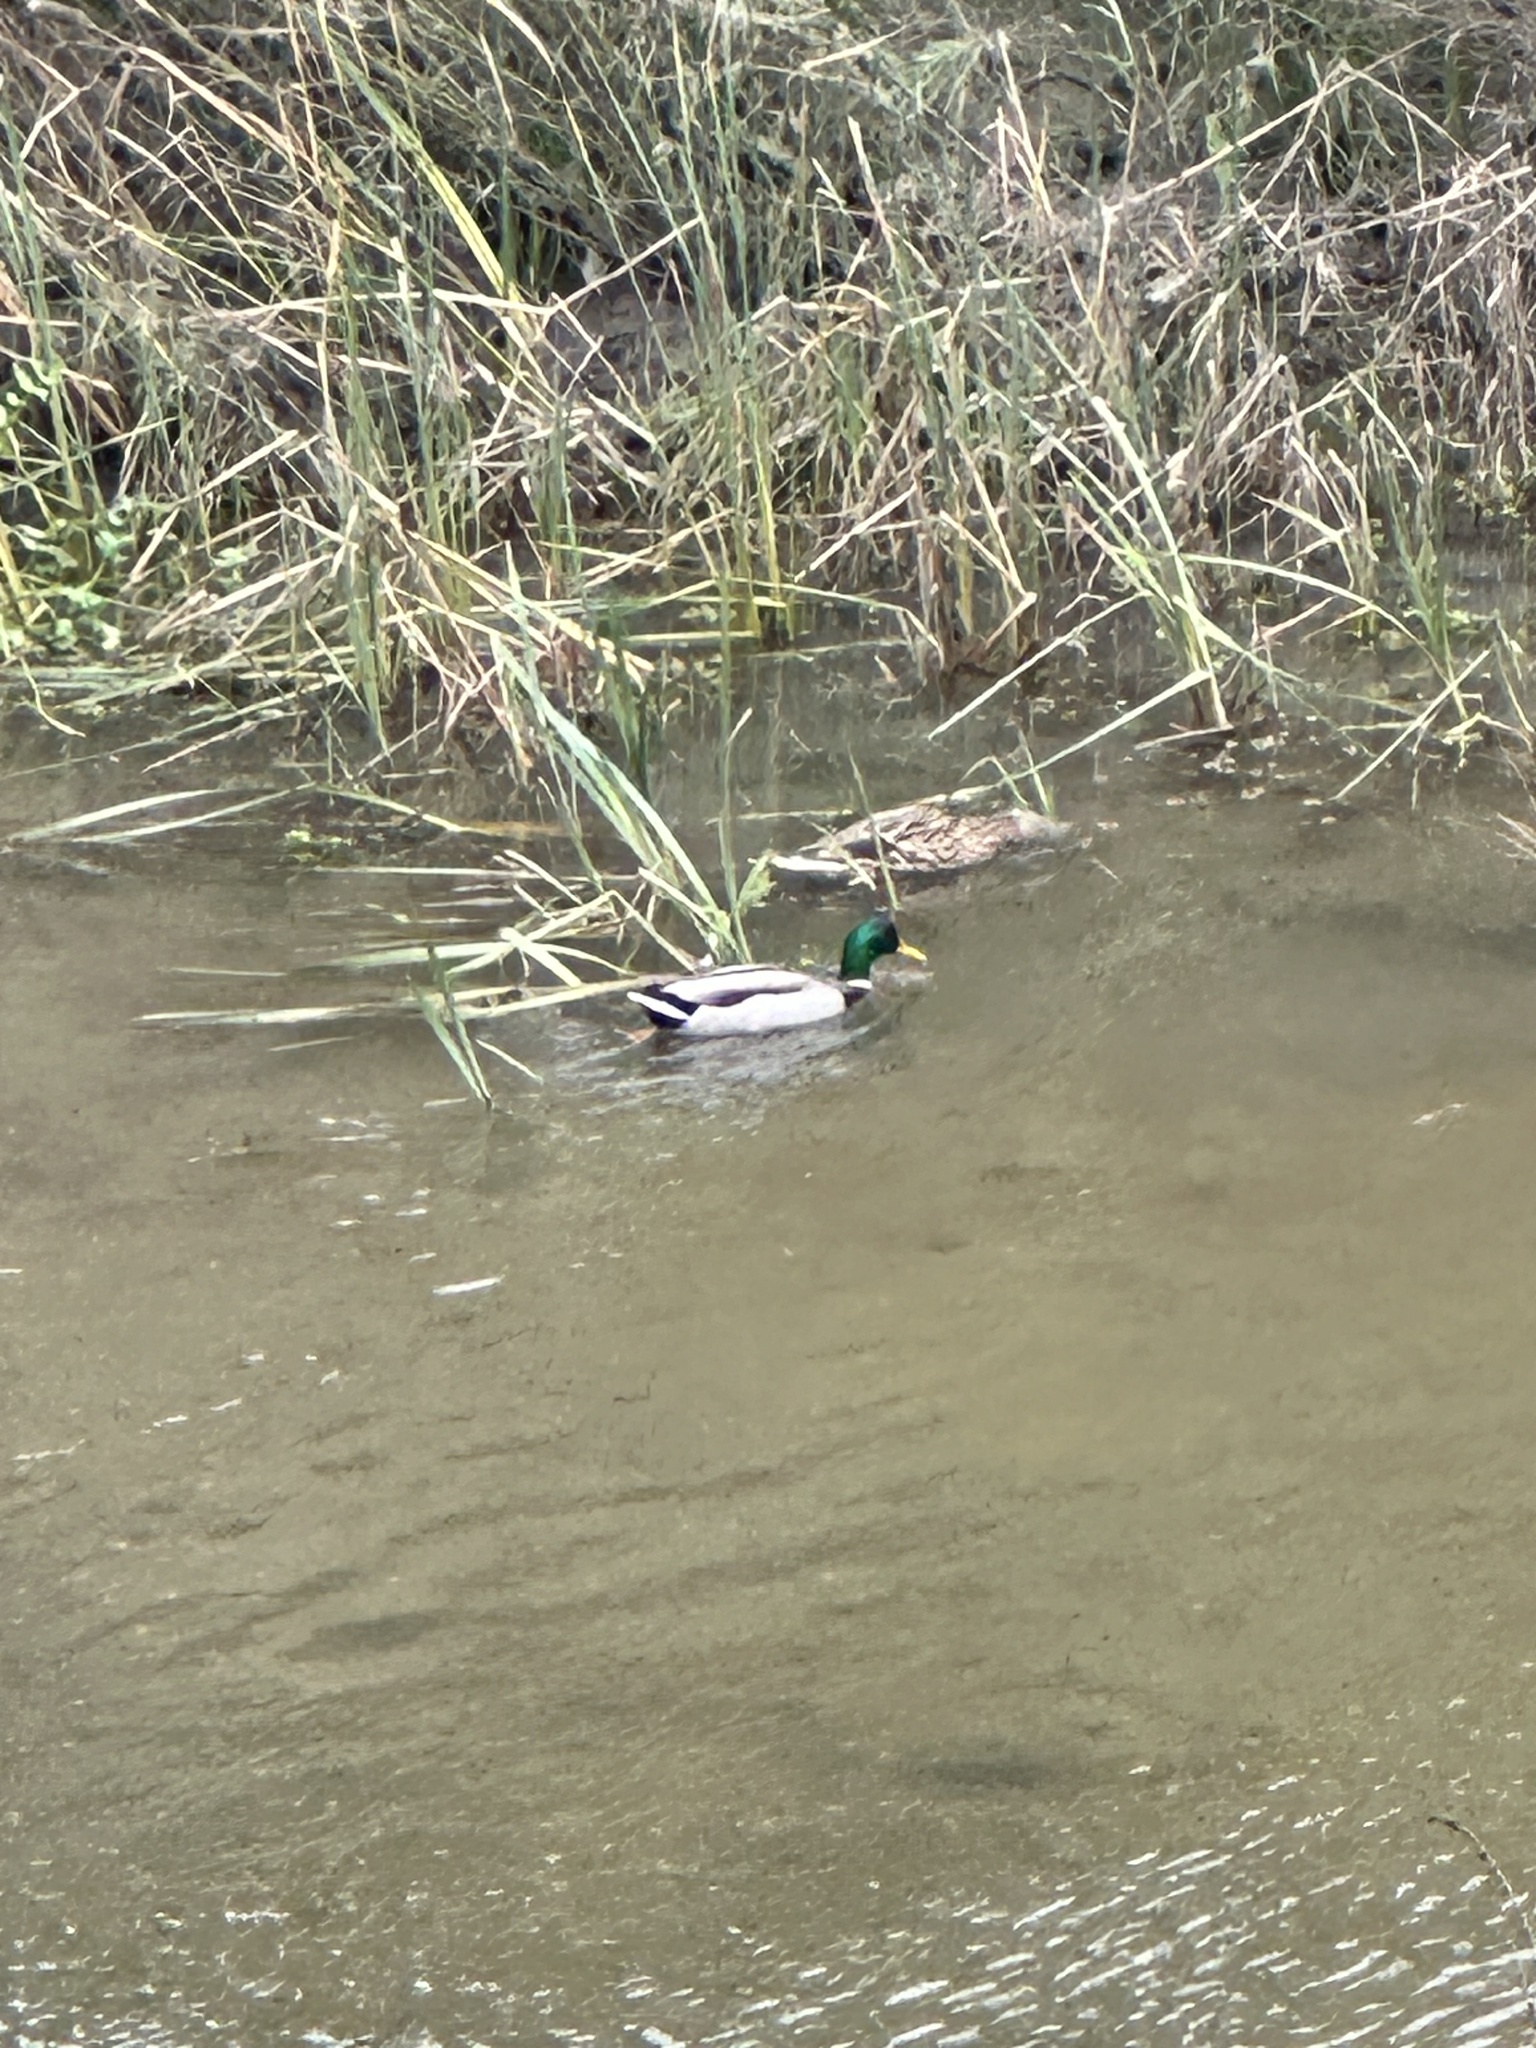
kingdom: Animalia
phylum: Chordata
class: Aves
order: Anseriformes
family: Anatidae
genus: Anas
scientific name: Anas platyrhynchos
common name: Mallard
